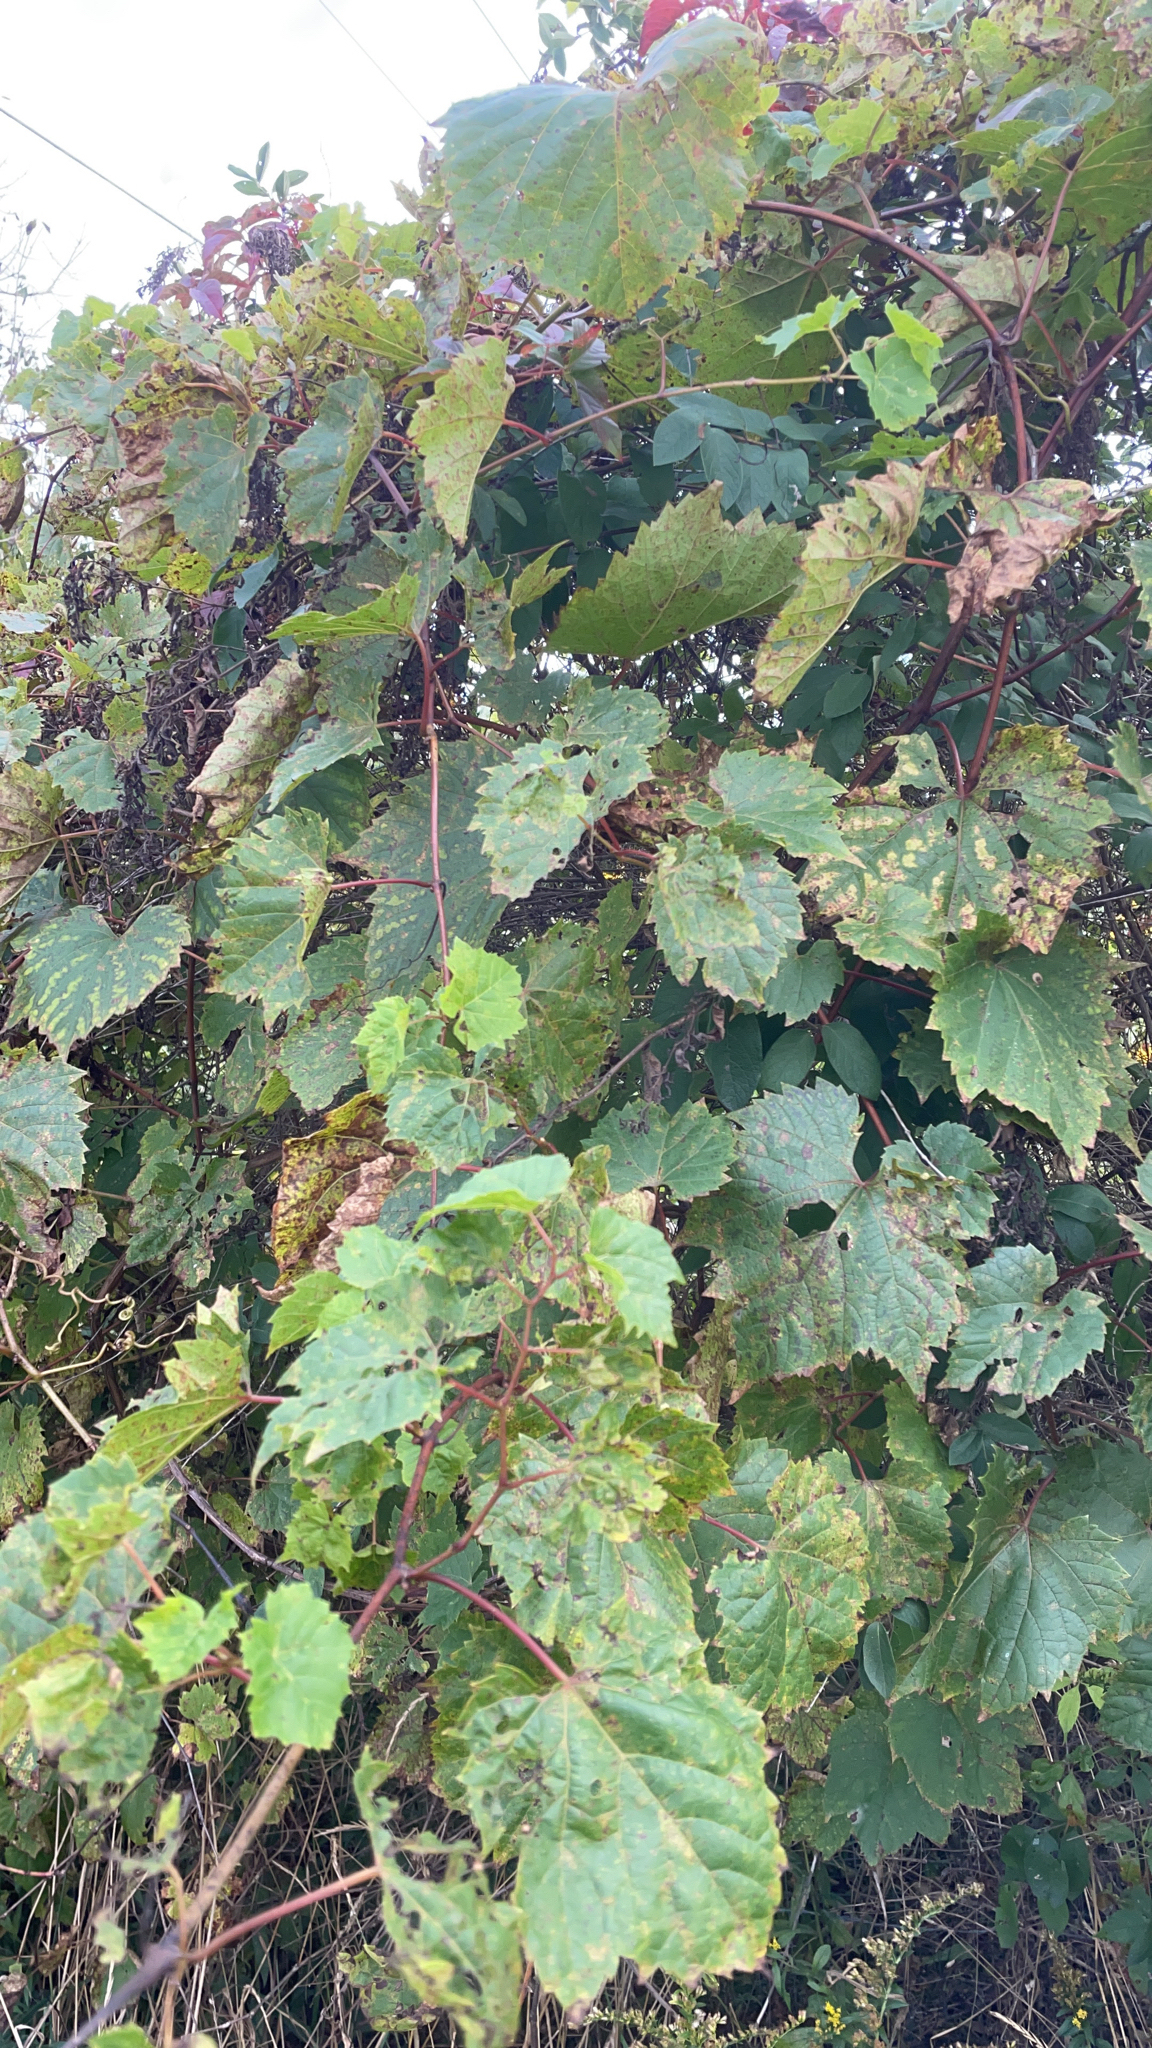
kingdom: Plantae
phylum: Tracheophyta
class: Magnoliopsida
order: Vitales
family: Vitaceae
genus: Vitis
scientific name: Vitis riparia
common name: Frost grape
